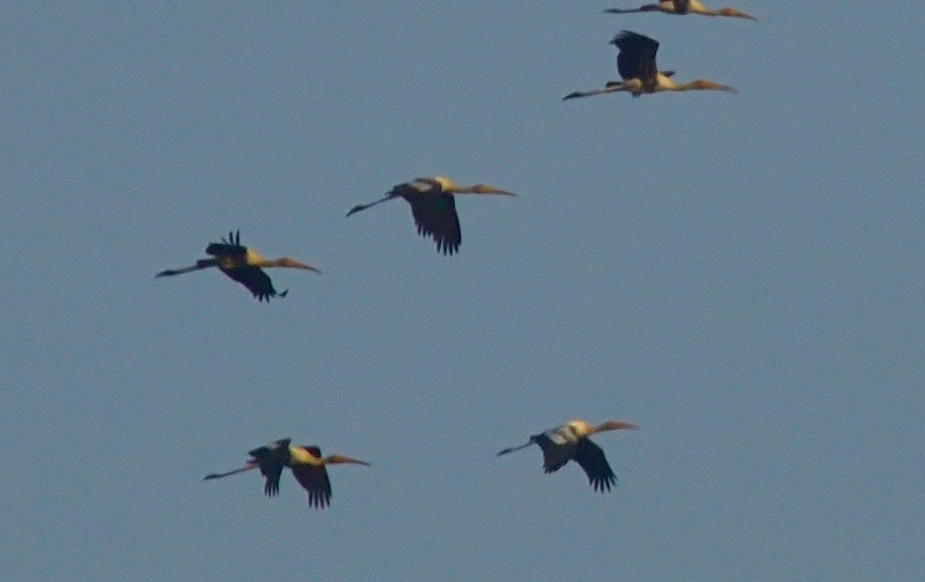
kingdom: Animalia
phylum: Chordata
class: Aves
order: Ciconiiformes
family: Ciconiidae
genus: Mycteria
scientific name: Mycteria leucocephala
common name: Painted stork
